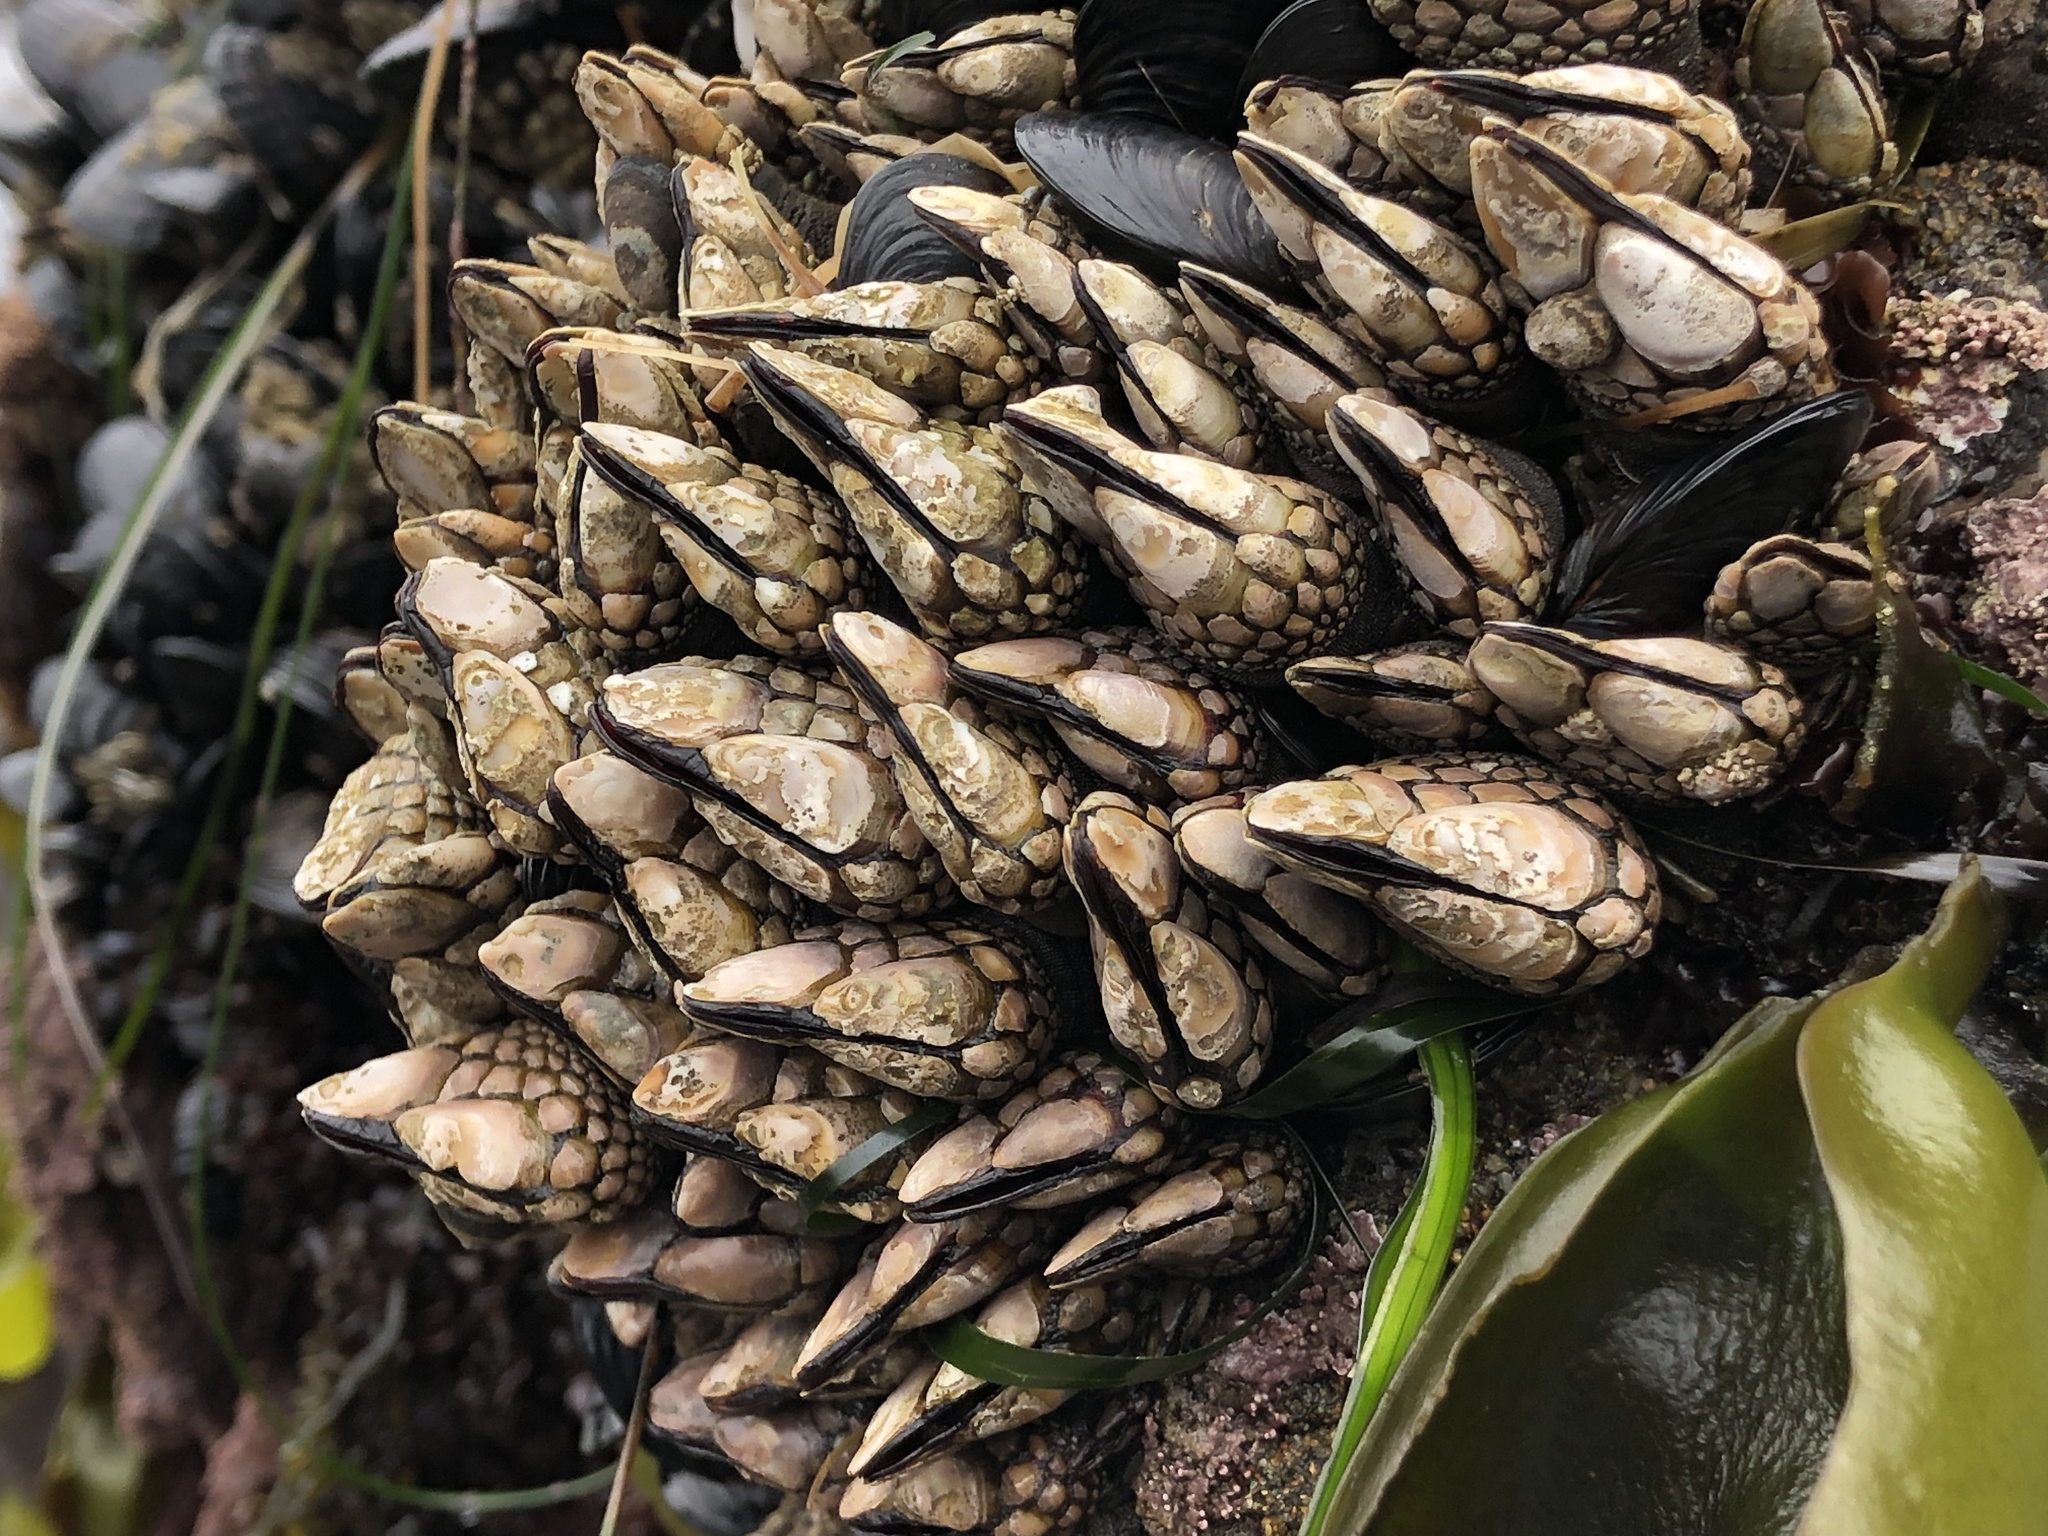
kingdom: Animalia
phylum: Arthropoda
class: Maxillopoda
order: Pedunculata
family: Pollicipedidae
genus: Pollicipes
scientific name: Pollicipes polymerus
